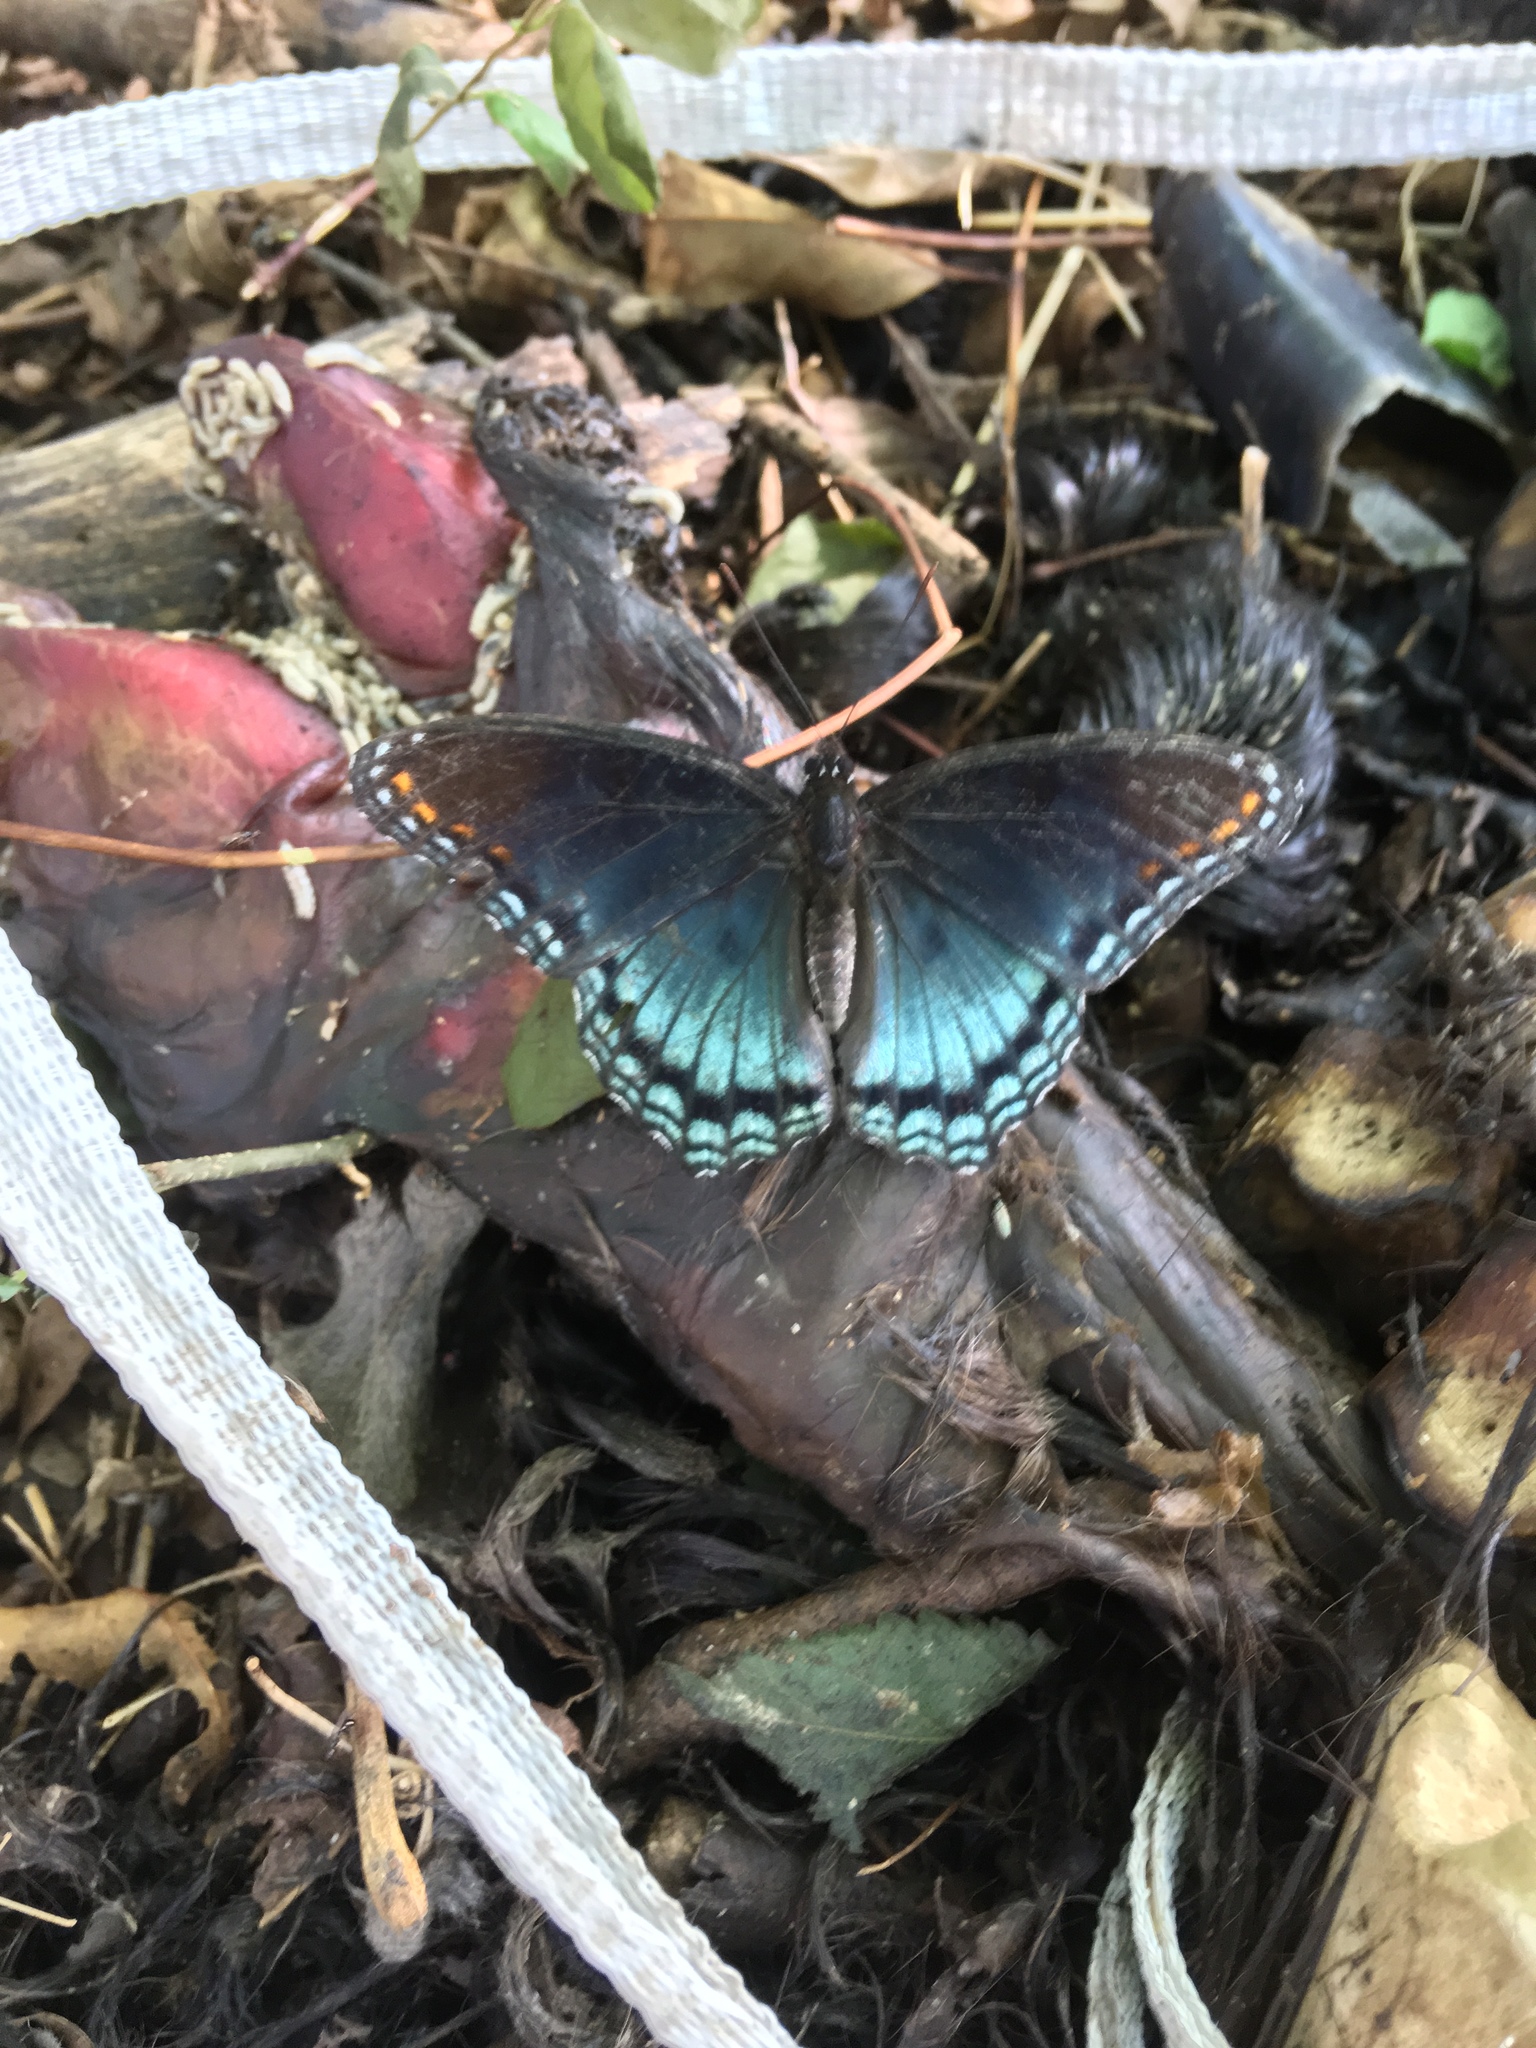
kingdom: Animalia
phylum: Arthropoda
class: Insecta
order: Lepidoptera
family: Nymphalidae
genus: Limenitis
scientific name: Limenitis astyanax
